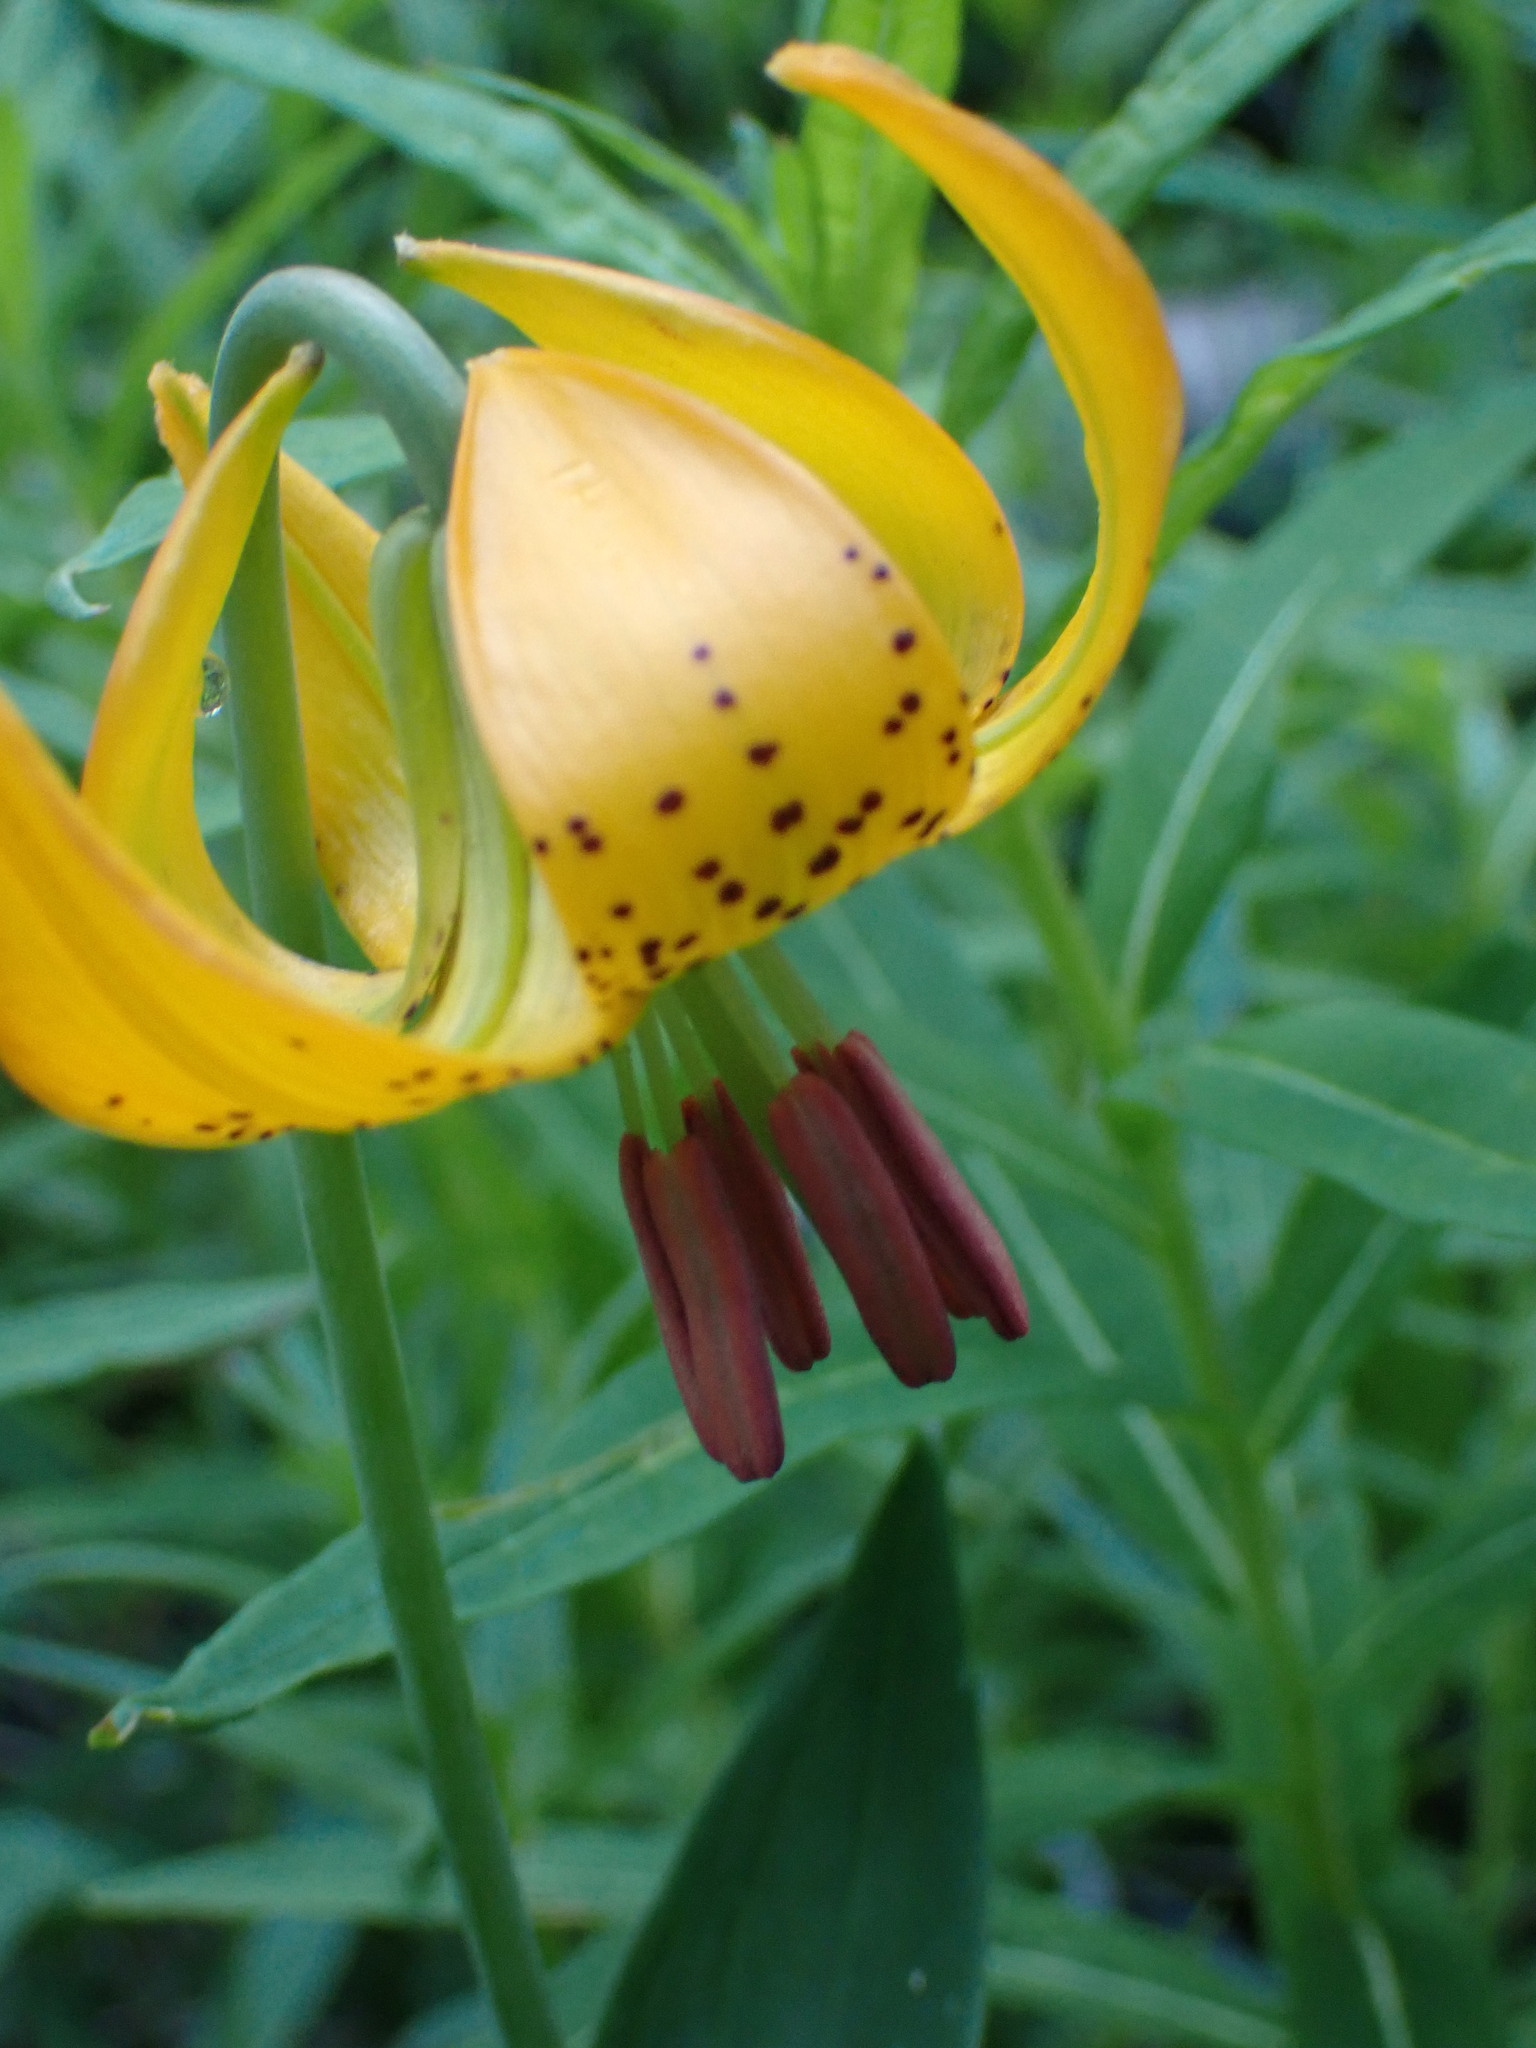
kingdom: Plantae
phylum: Tracheophyta
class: Liliopsida
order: Liliales
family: Liliaceae
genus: Lilium
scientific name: Lilium columbianum
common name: Columbia lily
